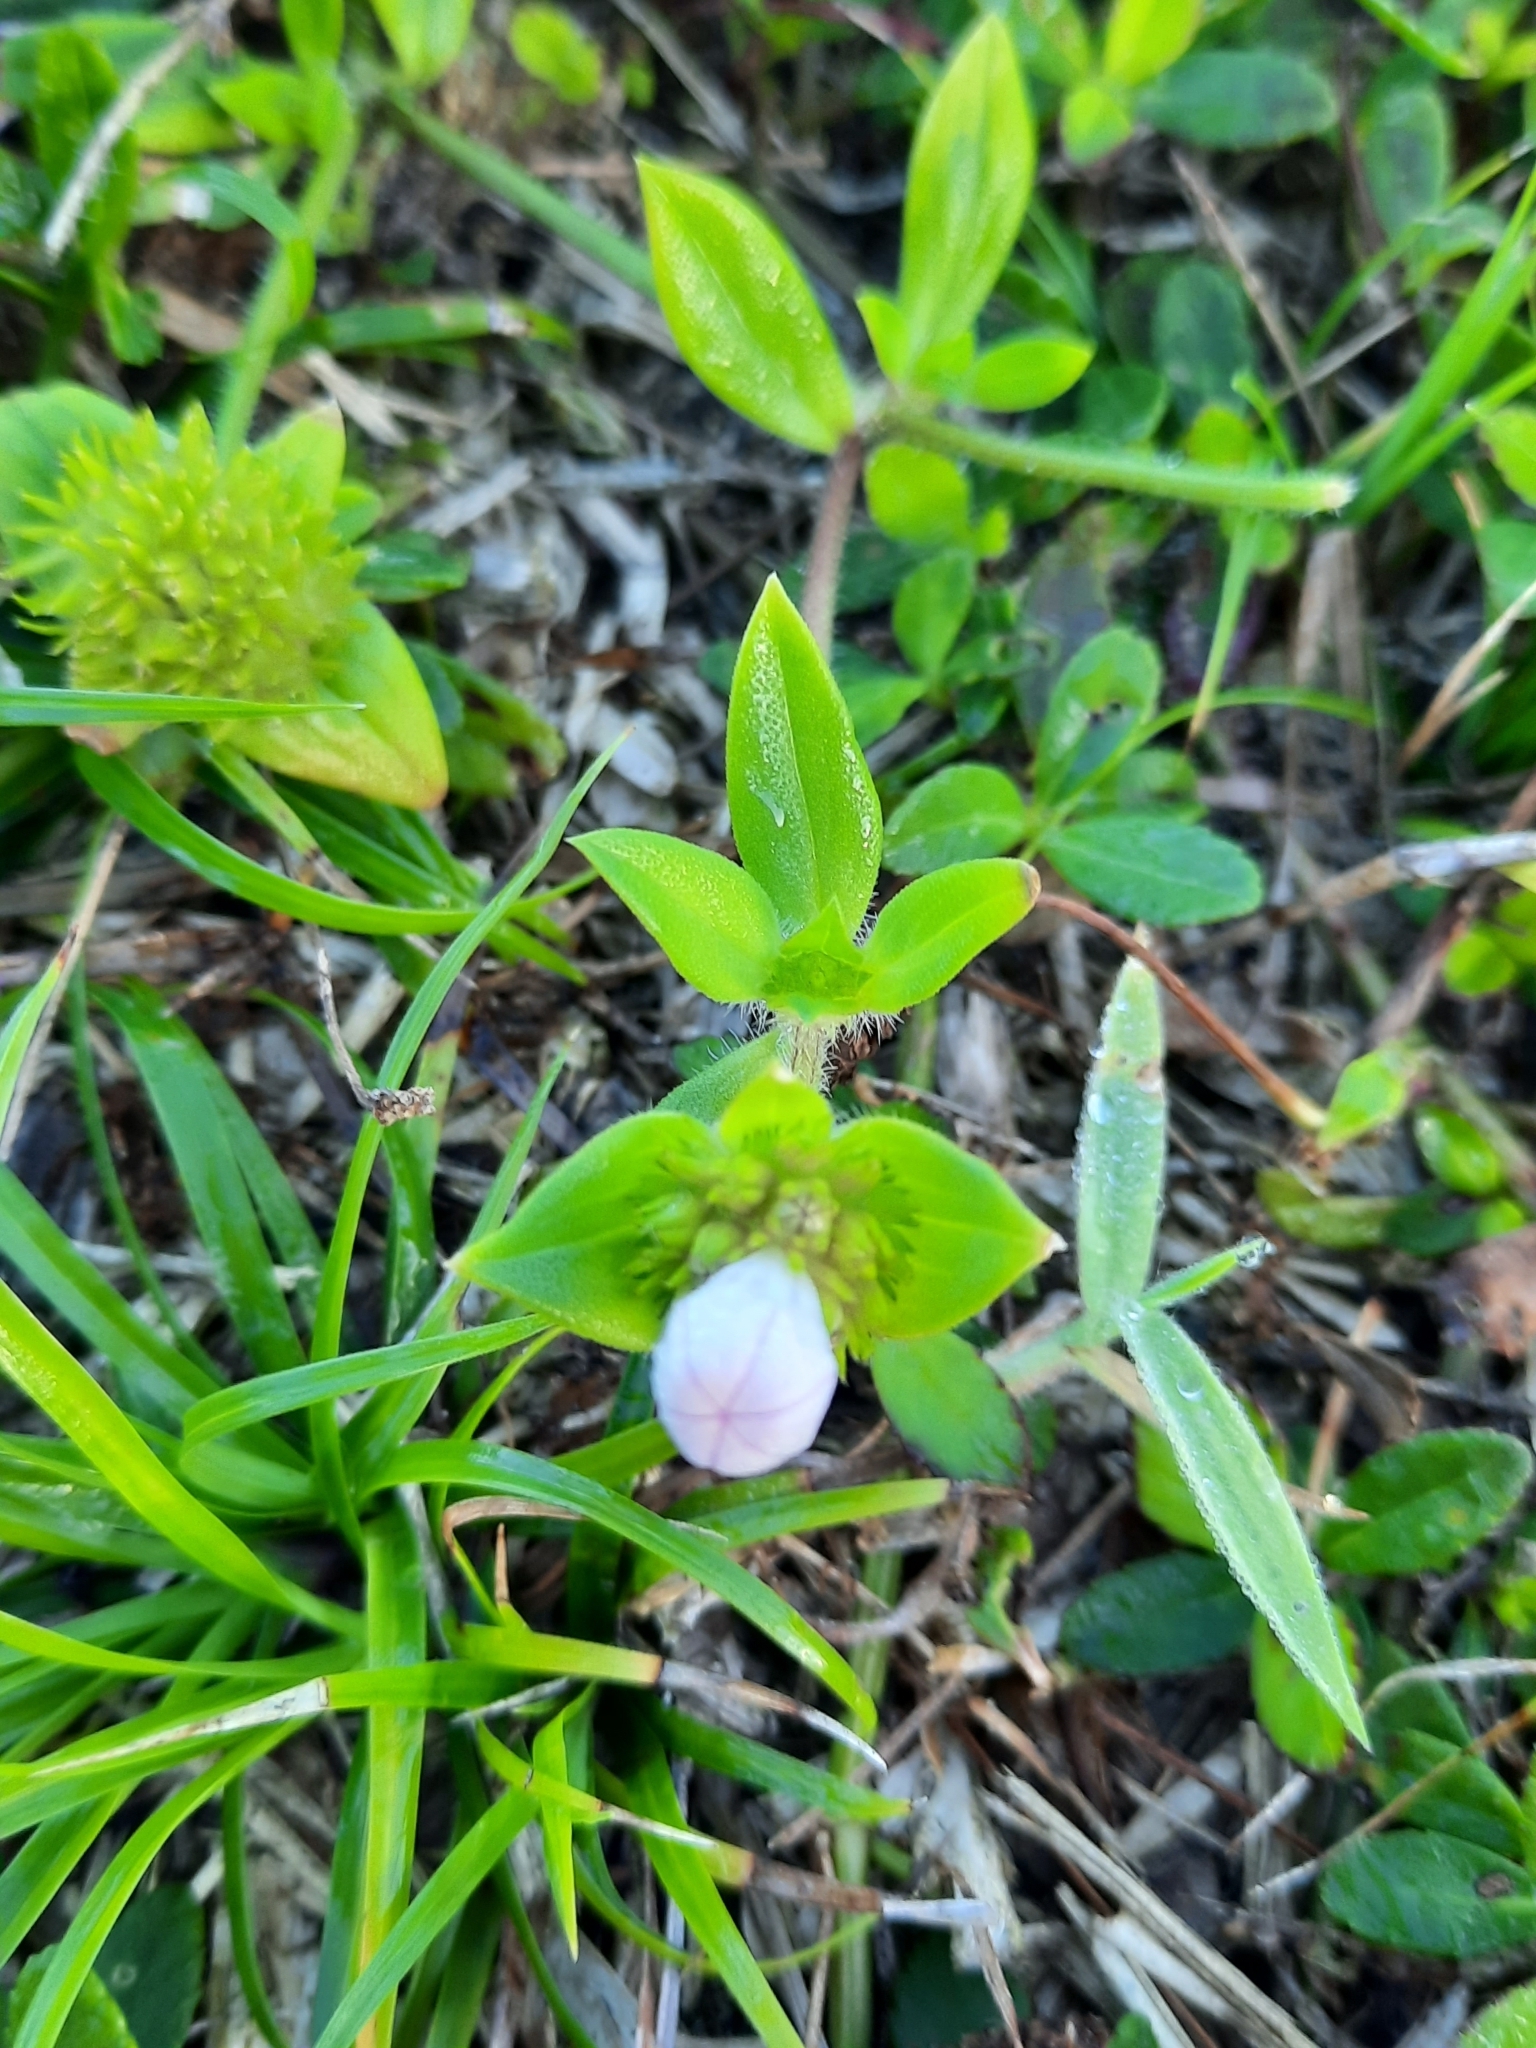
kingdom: Plantae
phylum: Tracheophyta
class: Magnoliopsida
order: Gentianales
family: Rubiaceae
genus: Richardia
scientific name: Richardia grandiflora
